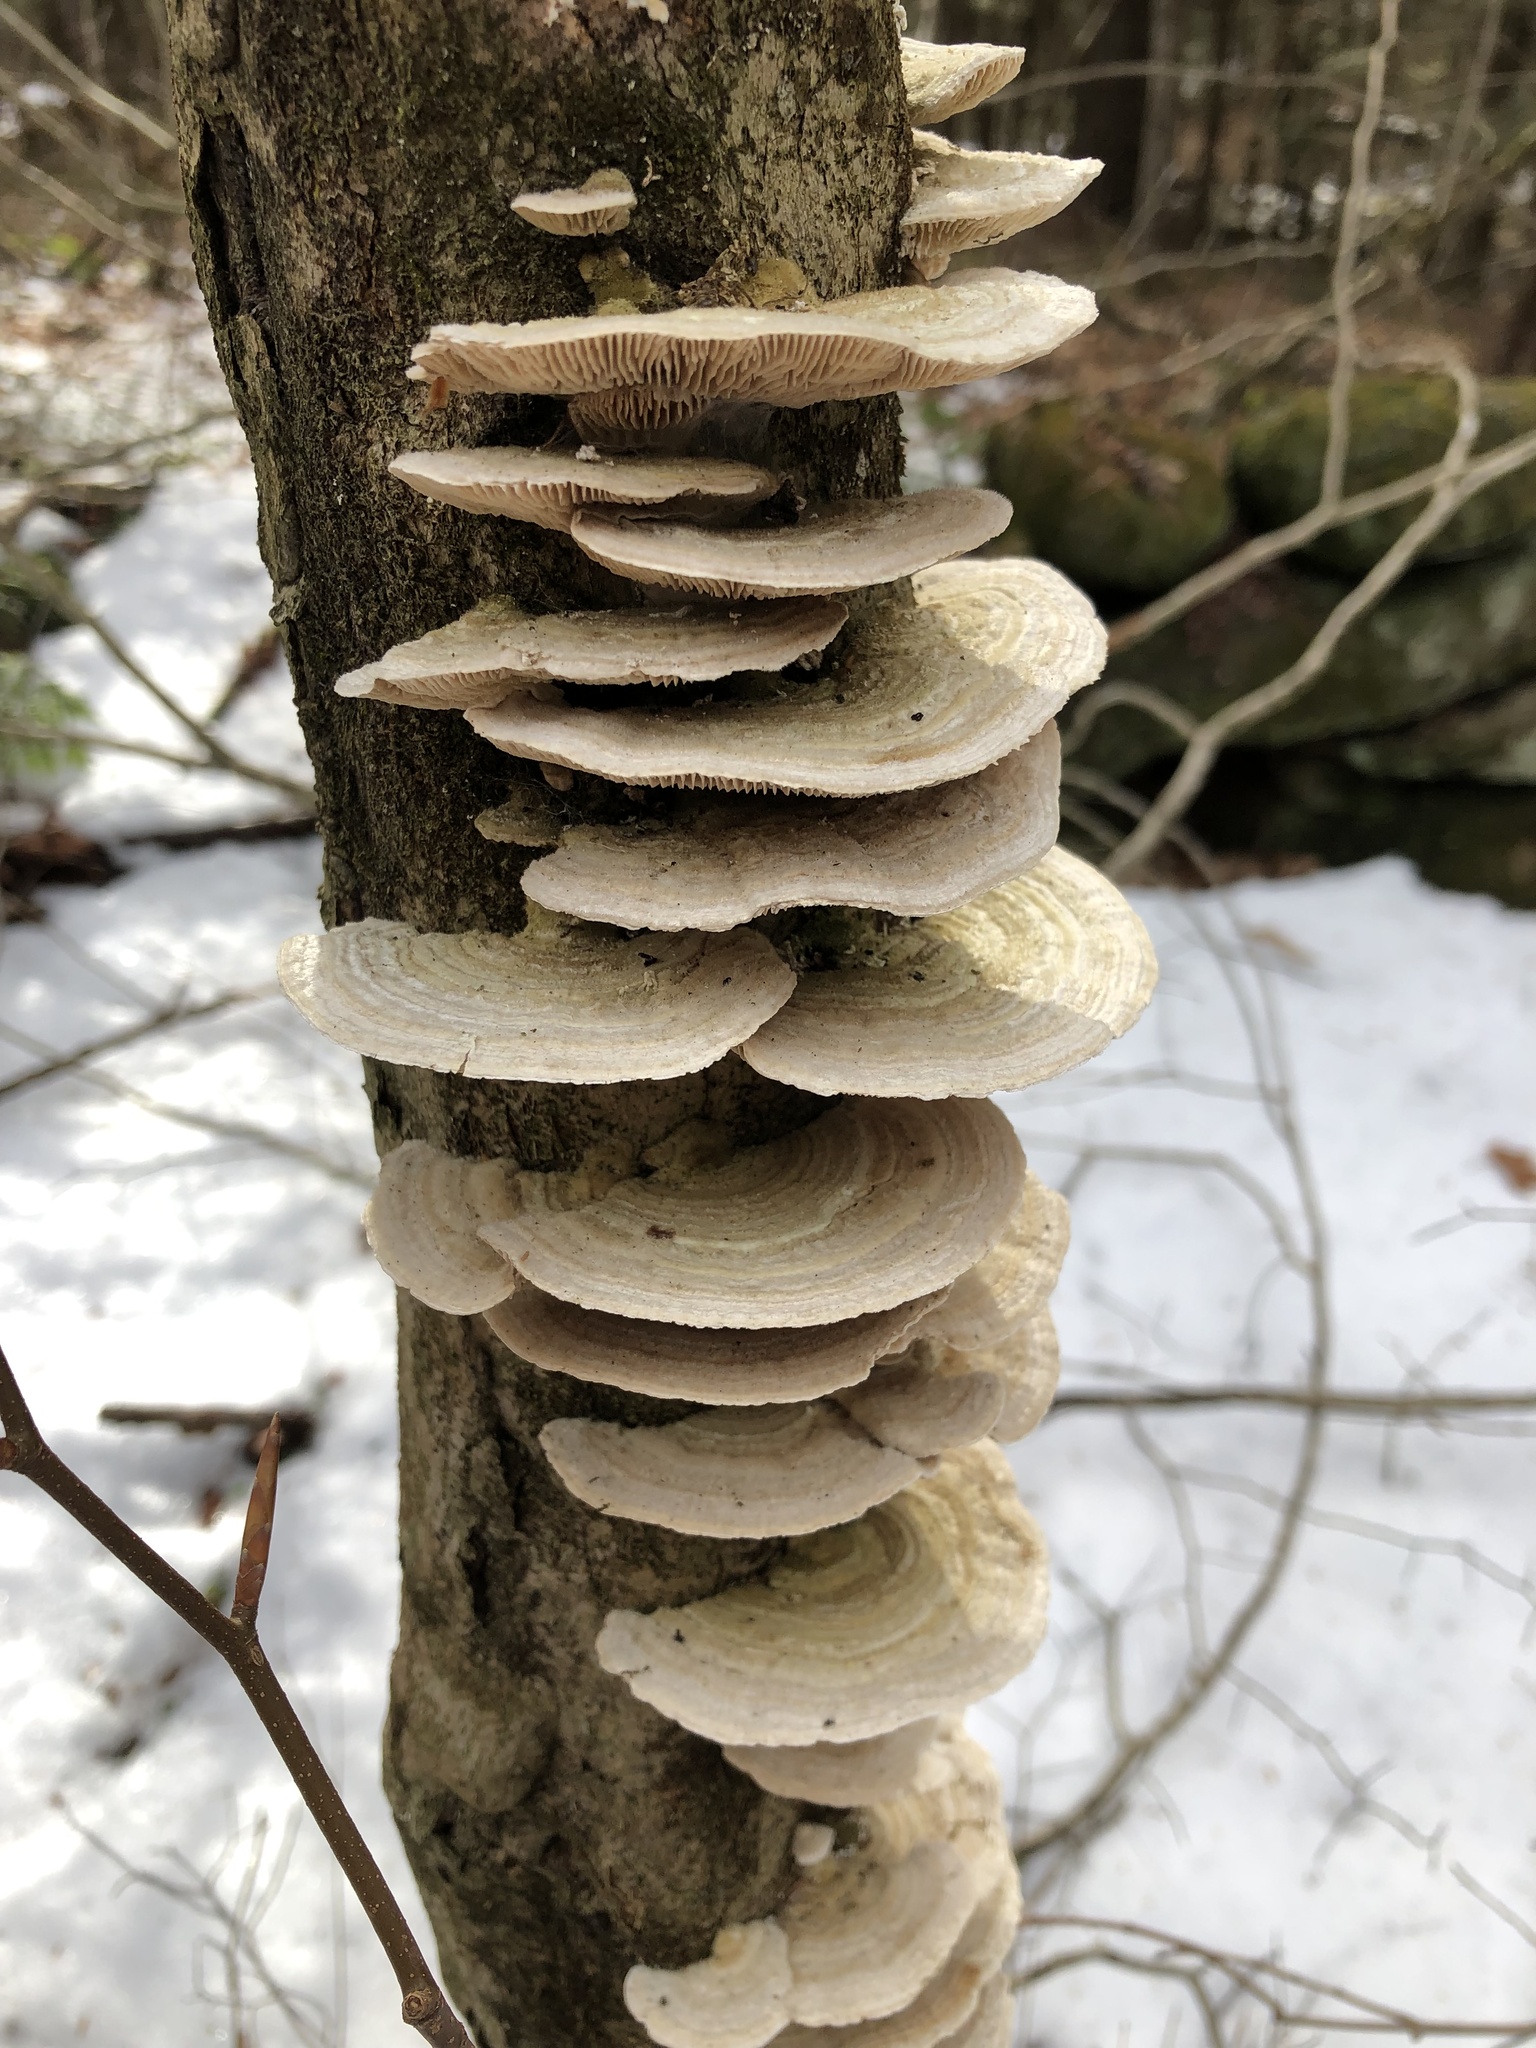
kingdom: Fungi
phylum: Basidiomycota
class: Agaricomycetes
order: Polyporales
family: Polyporaceae
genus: Lenzites
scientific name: Lenzites betulinus
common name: Birch mazegill
